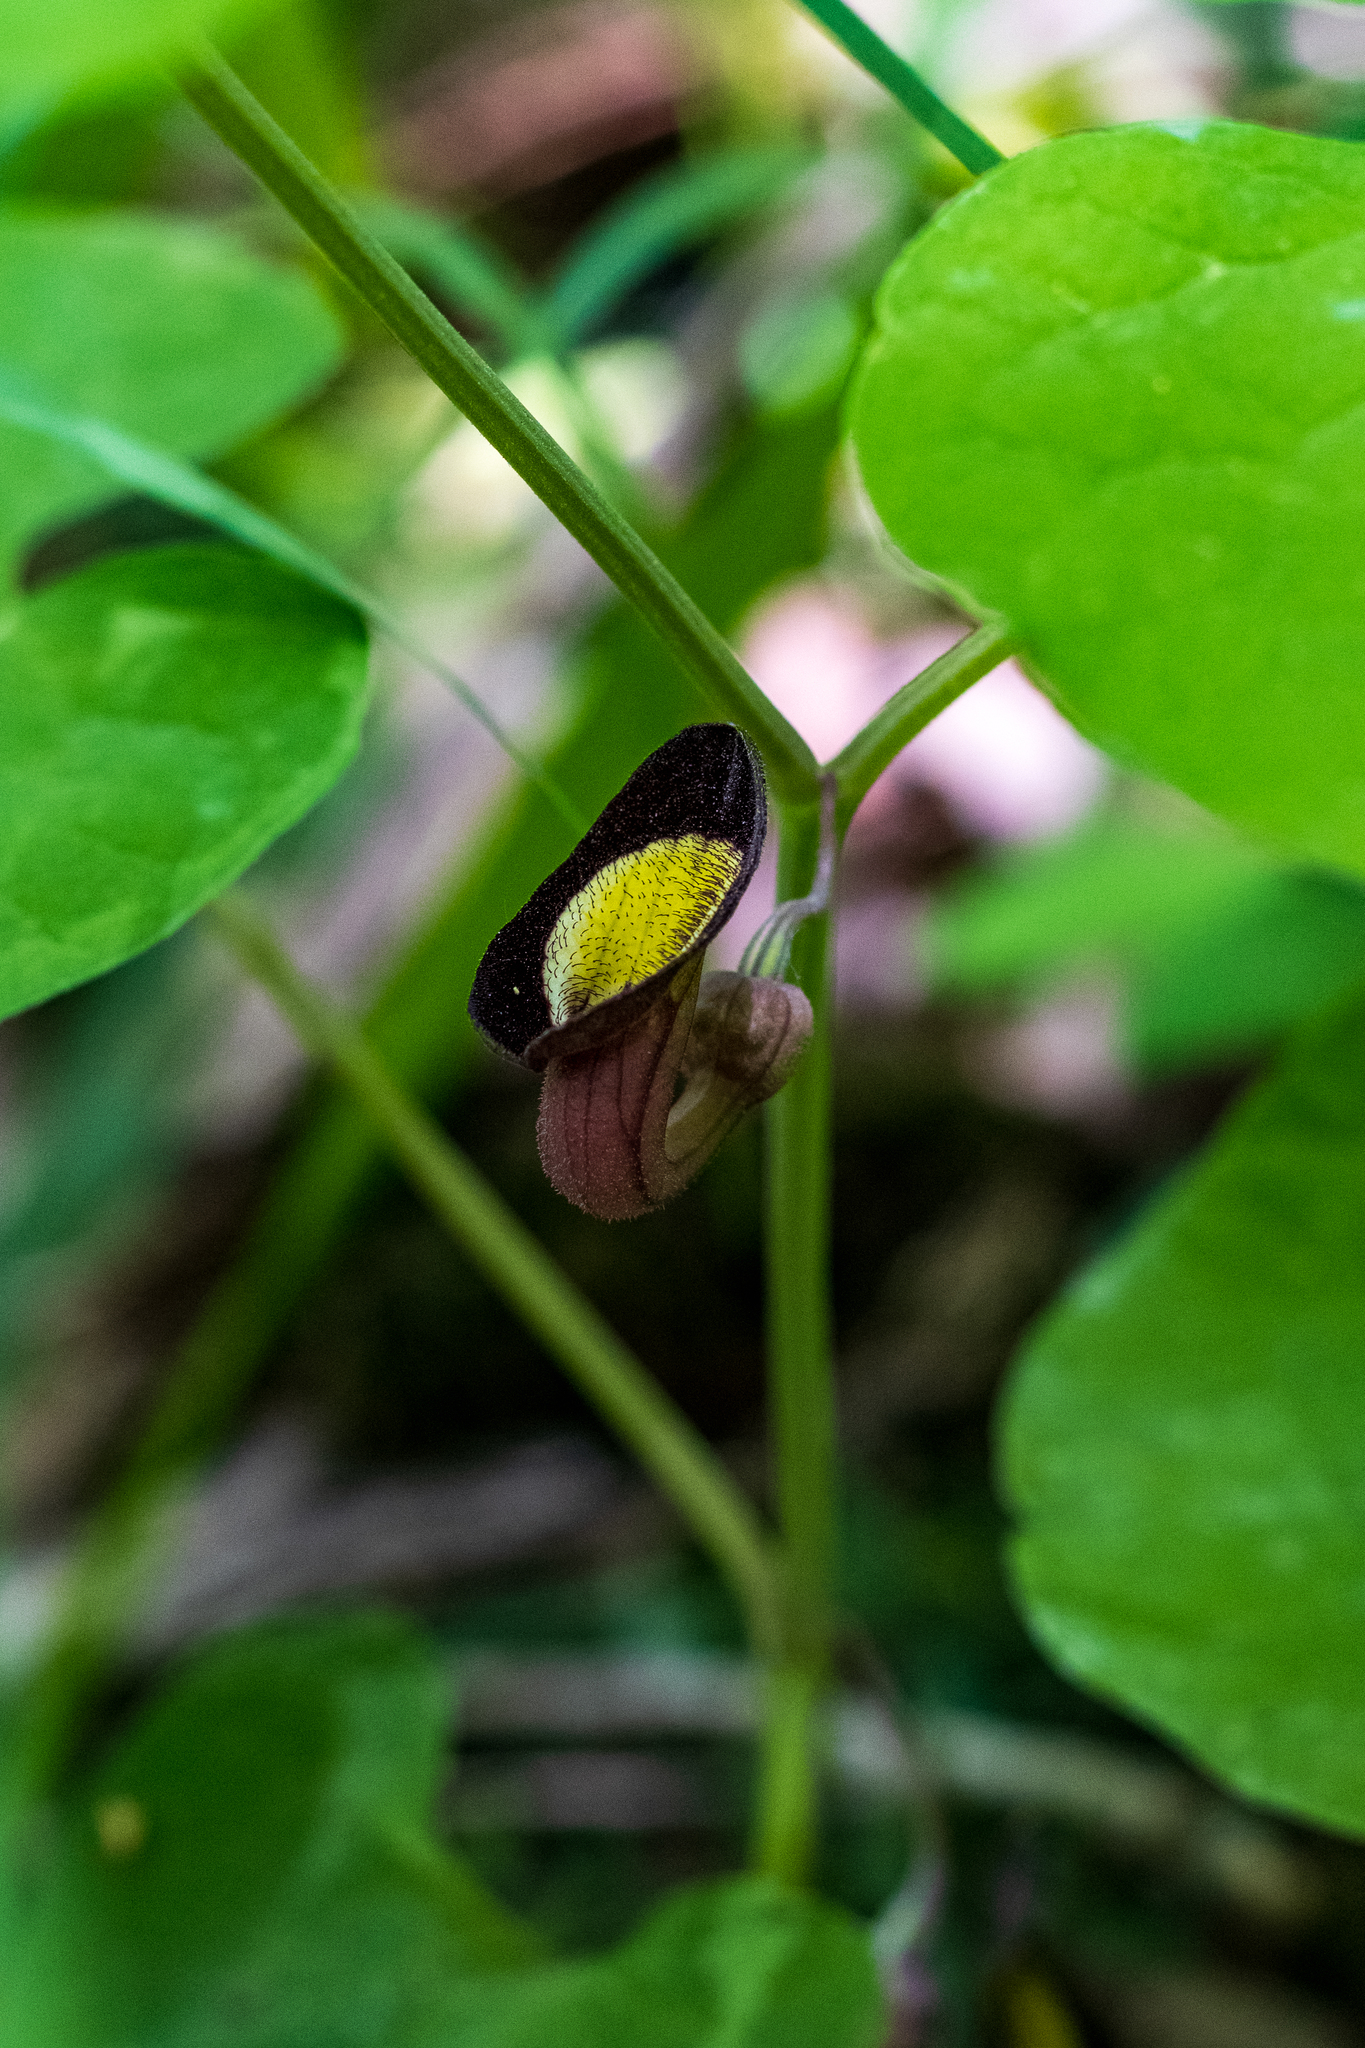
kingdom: Plantae
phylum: Tracheophyta
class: Magnoliopsida
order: Piperales
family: Aristolochiaceae
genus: Aristolochia
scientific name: Aristolochia steupii
